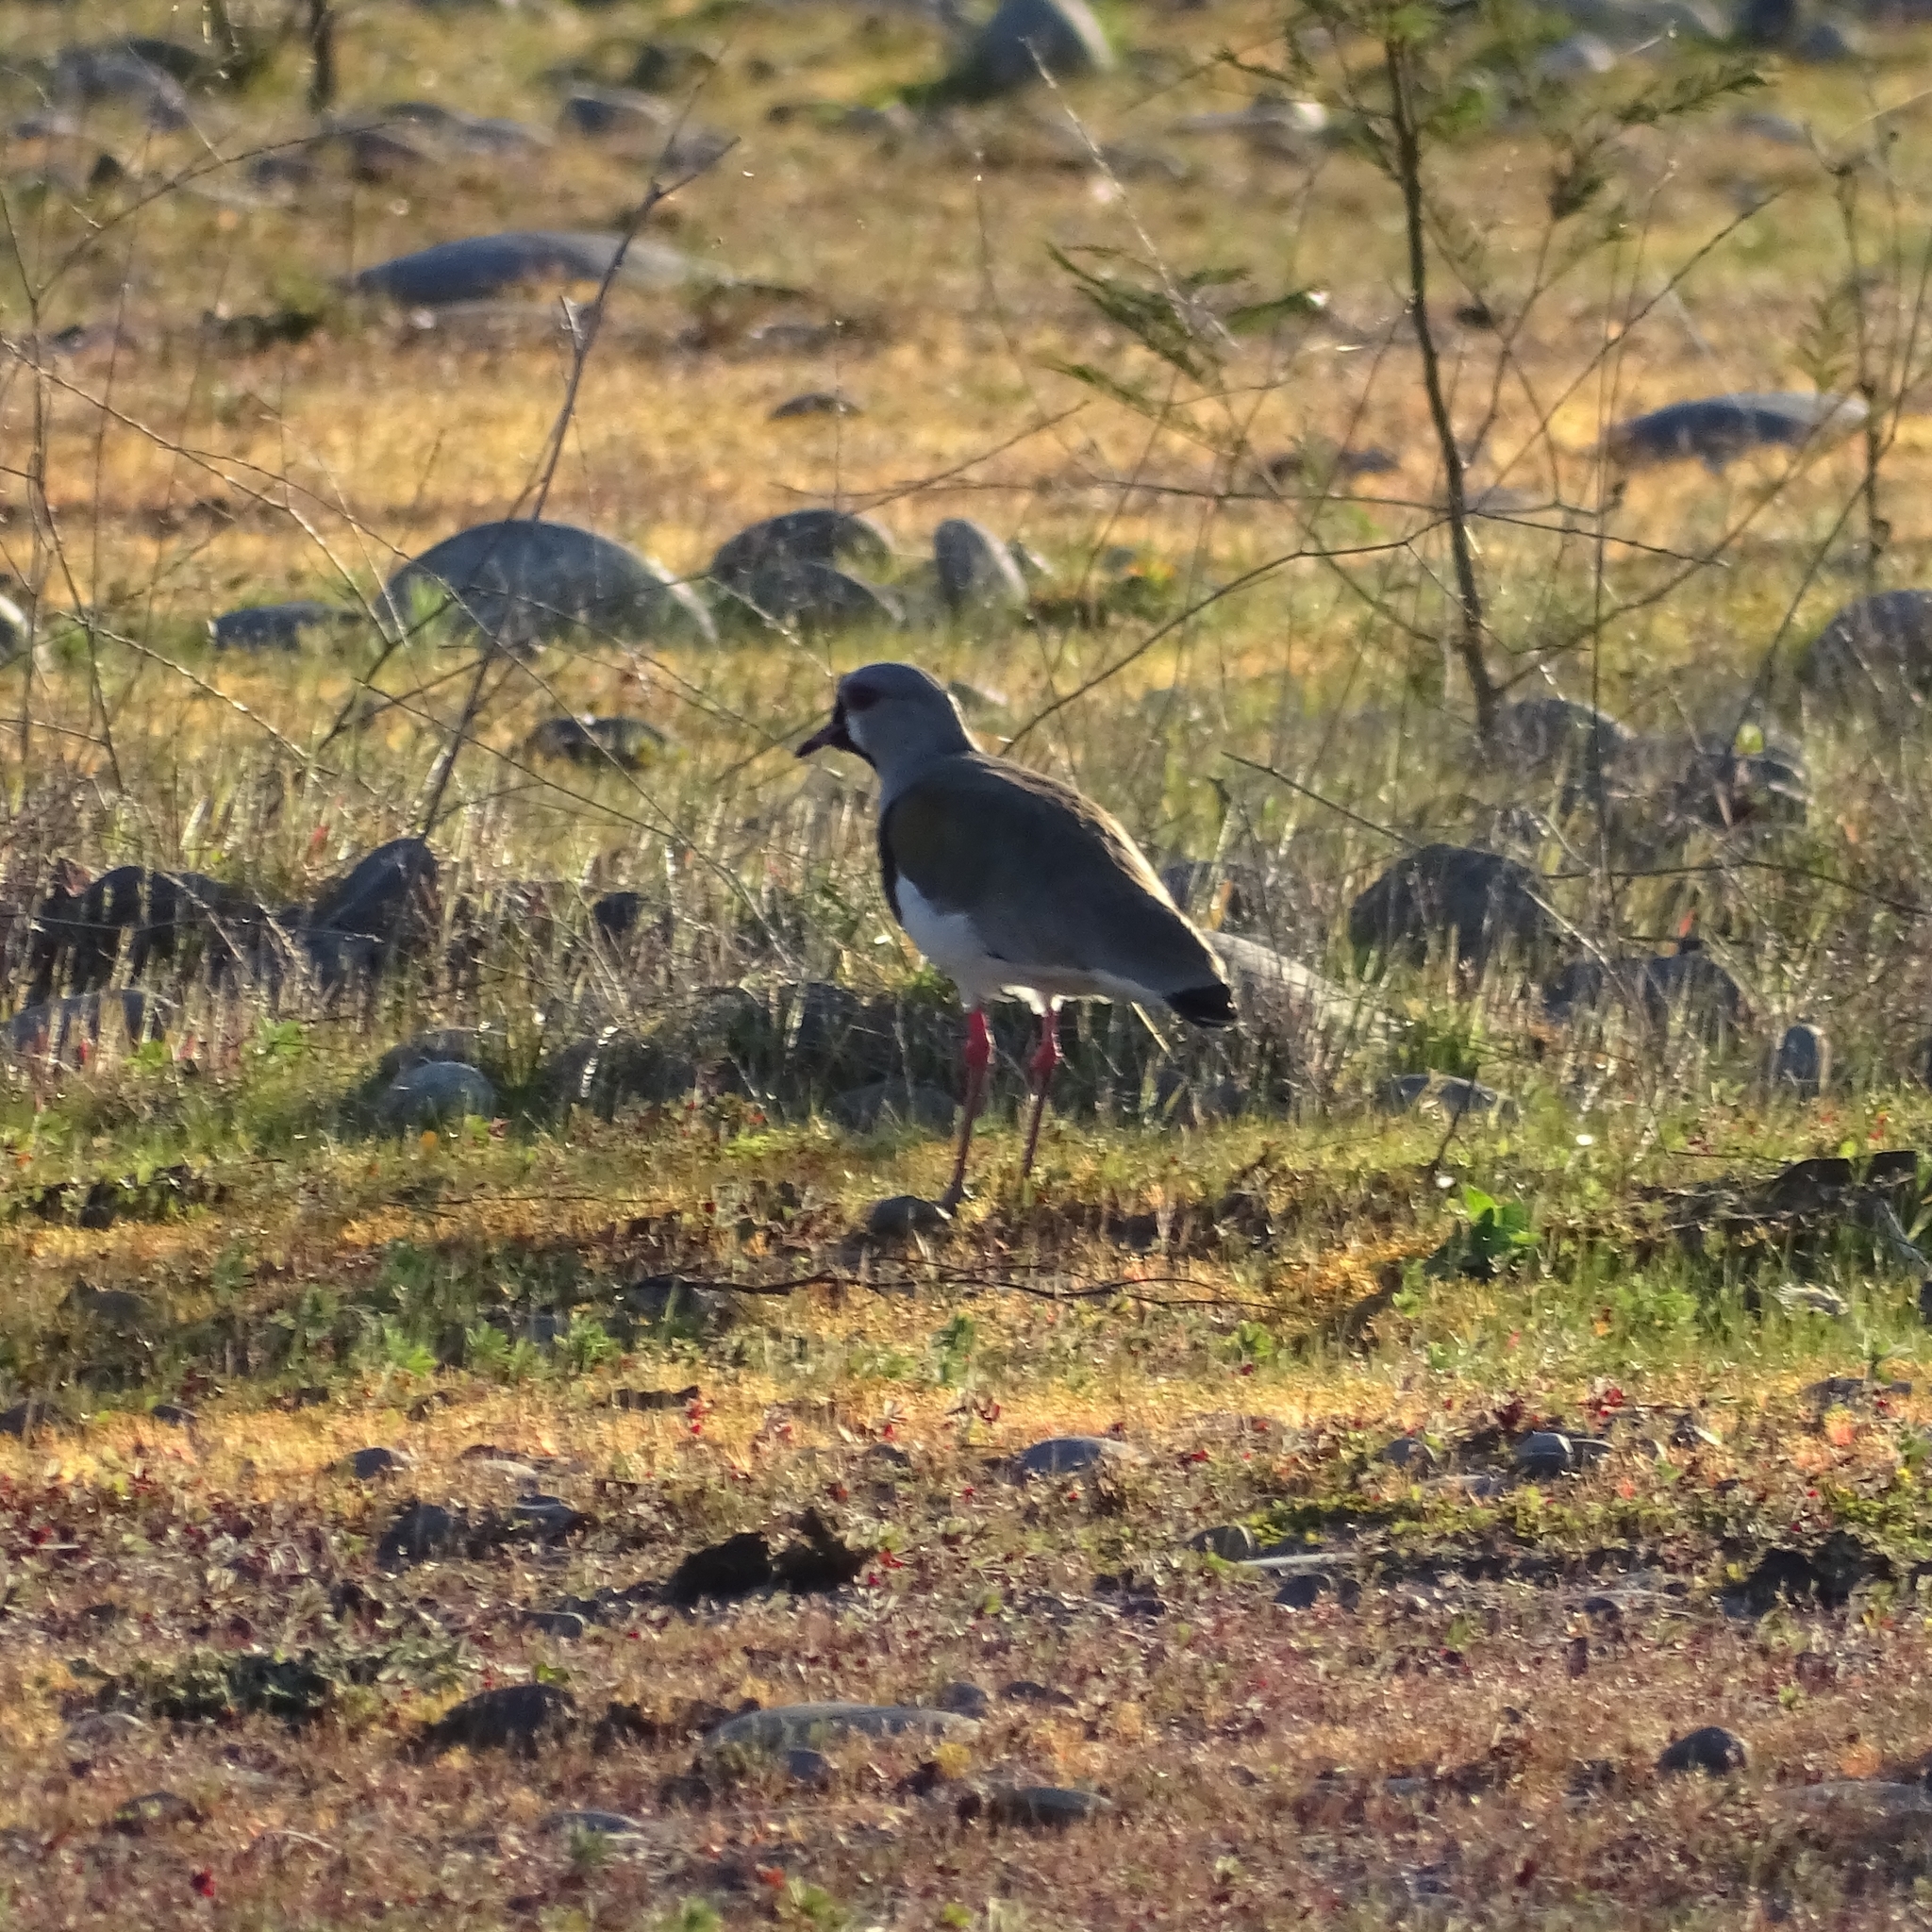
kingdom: Animalia
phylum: Chordata
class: Aves
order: Charadriiformes
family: Charadriidae
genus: Vanellus
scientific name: Vanellus chilensis
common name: Southern lapwing
